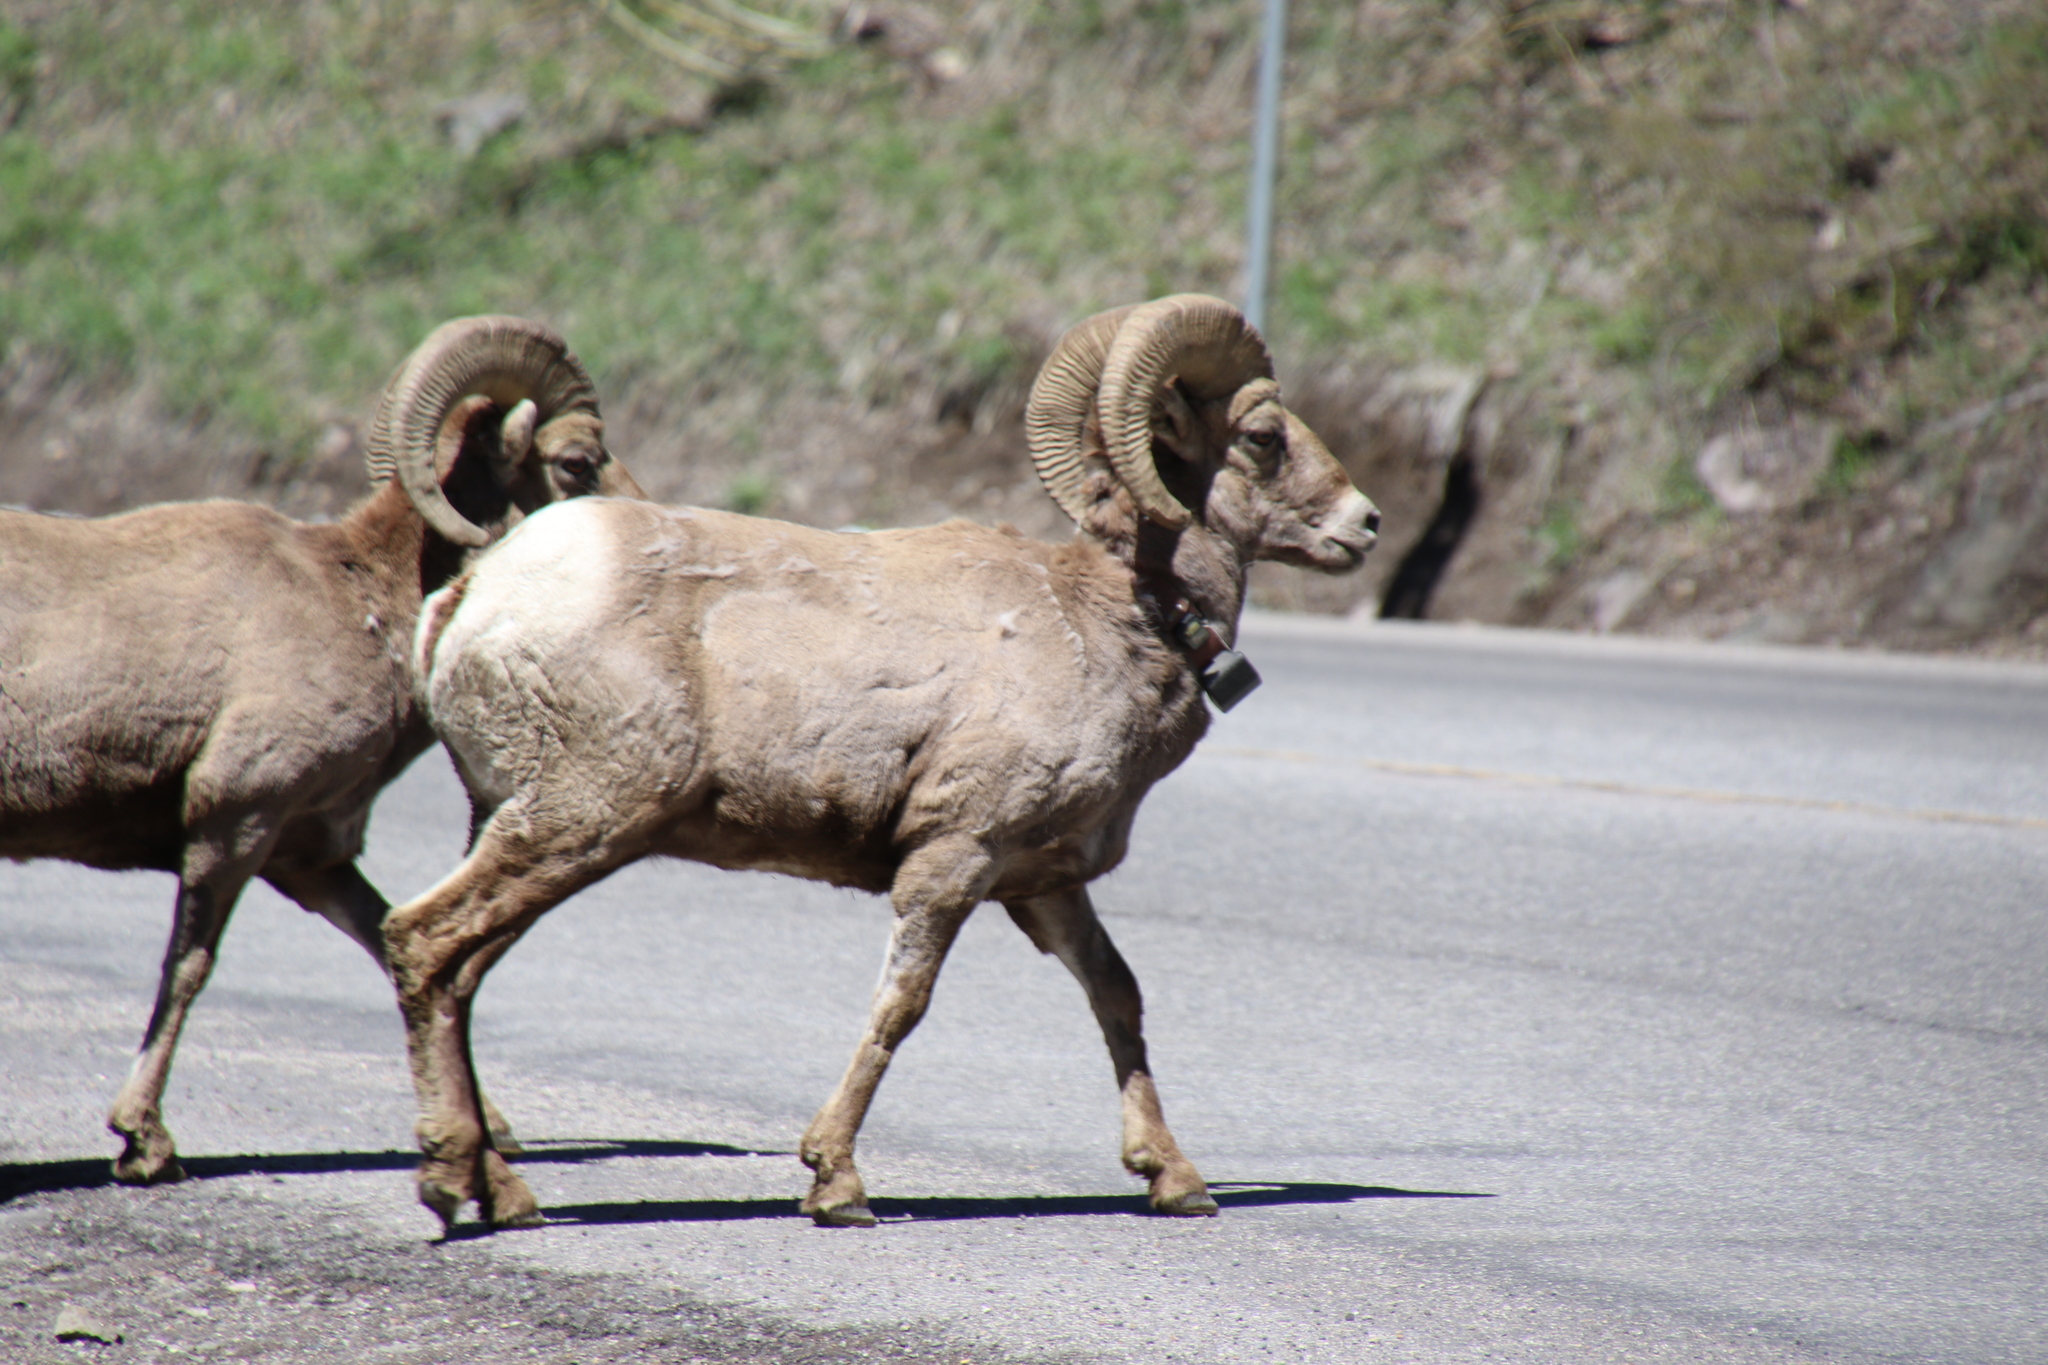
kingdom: Animalia
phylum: Chordata
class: Mammalia
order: Artiodactyla
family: Bovidae
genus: Ovis
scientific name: Ovis canadensis
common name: Bighorn sheep
